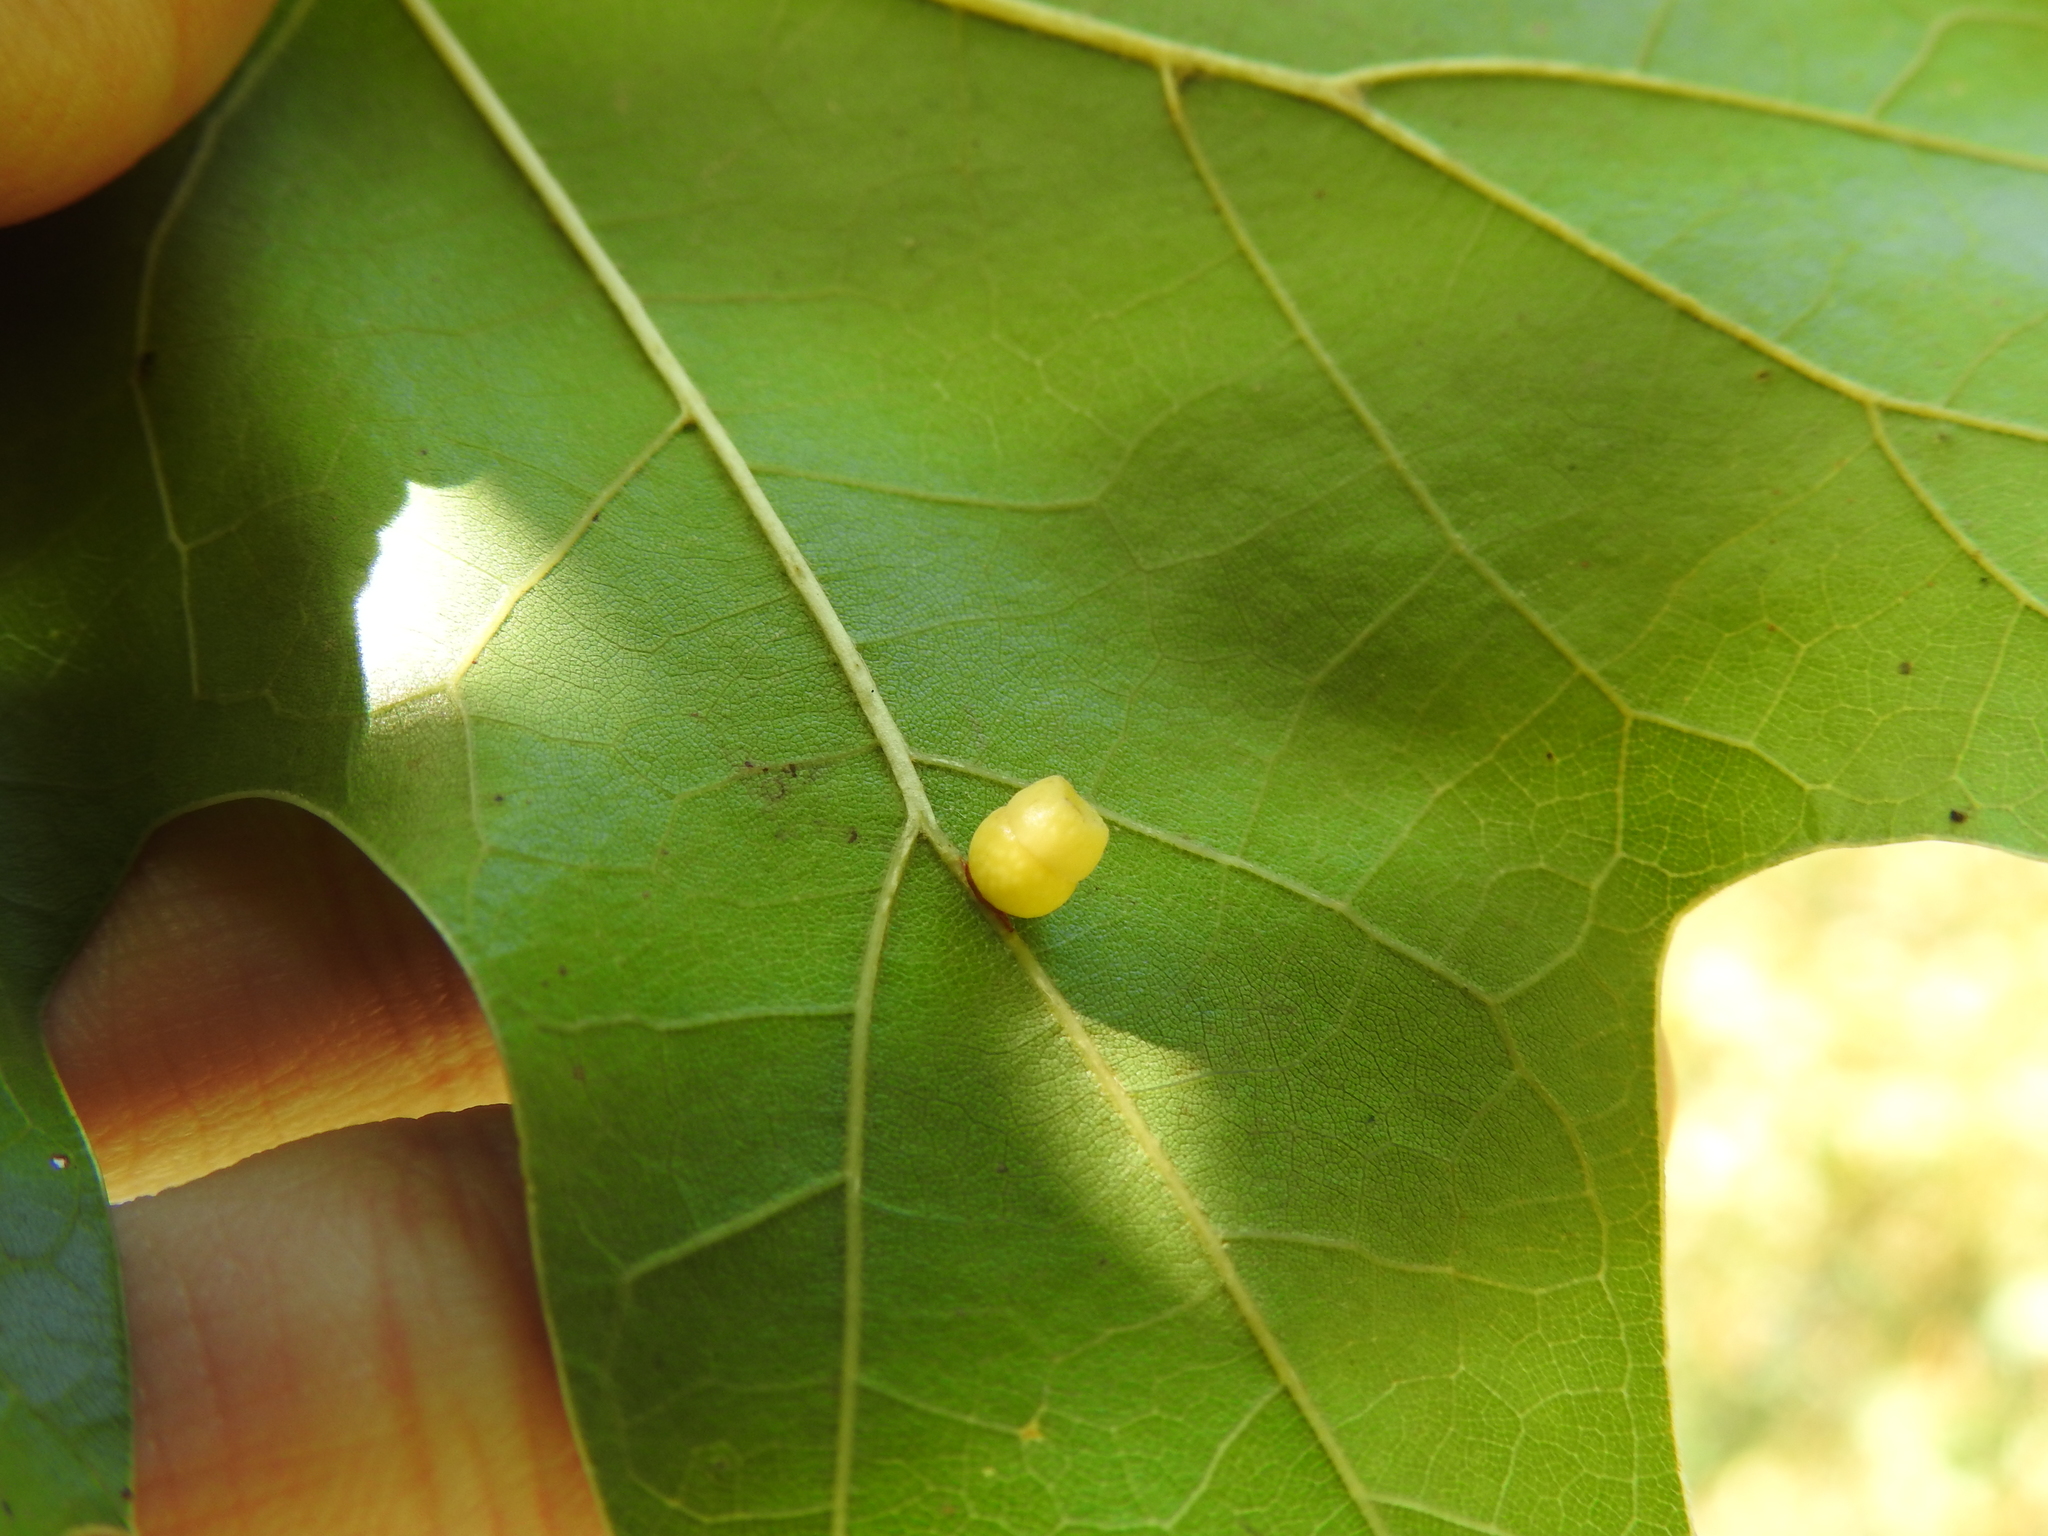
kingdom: Animalia
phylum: Arthropoda
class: Insecta
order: Hymenoptera
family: Cynipidae
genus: Kokkocynips
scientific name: Kokkocynips rileyi
